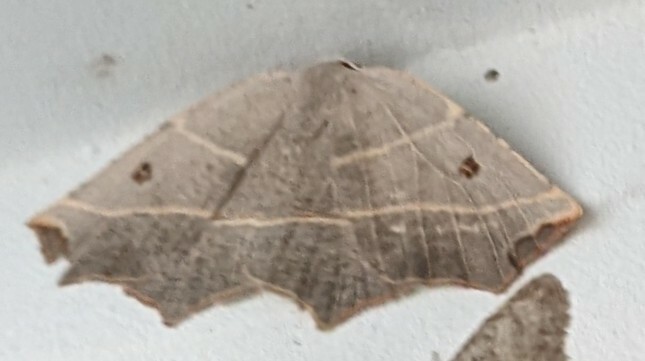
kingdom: Animalia
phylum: Arthropoda
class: Insecta
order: Lepidoptera
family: Geometridae
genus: Metanema
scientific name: Metanema inatomaria
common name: Pale metanema
